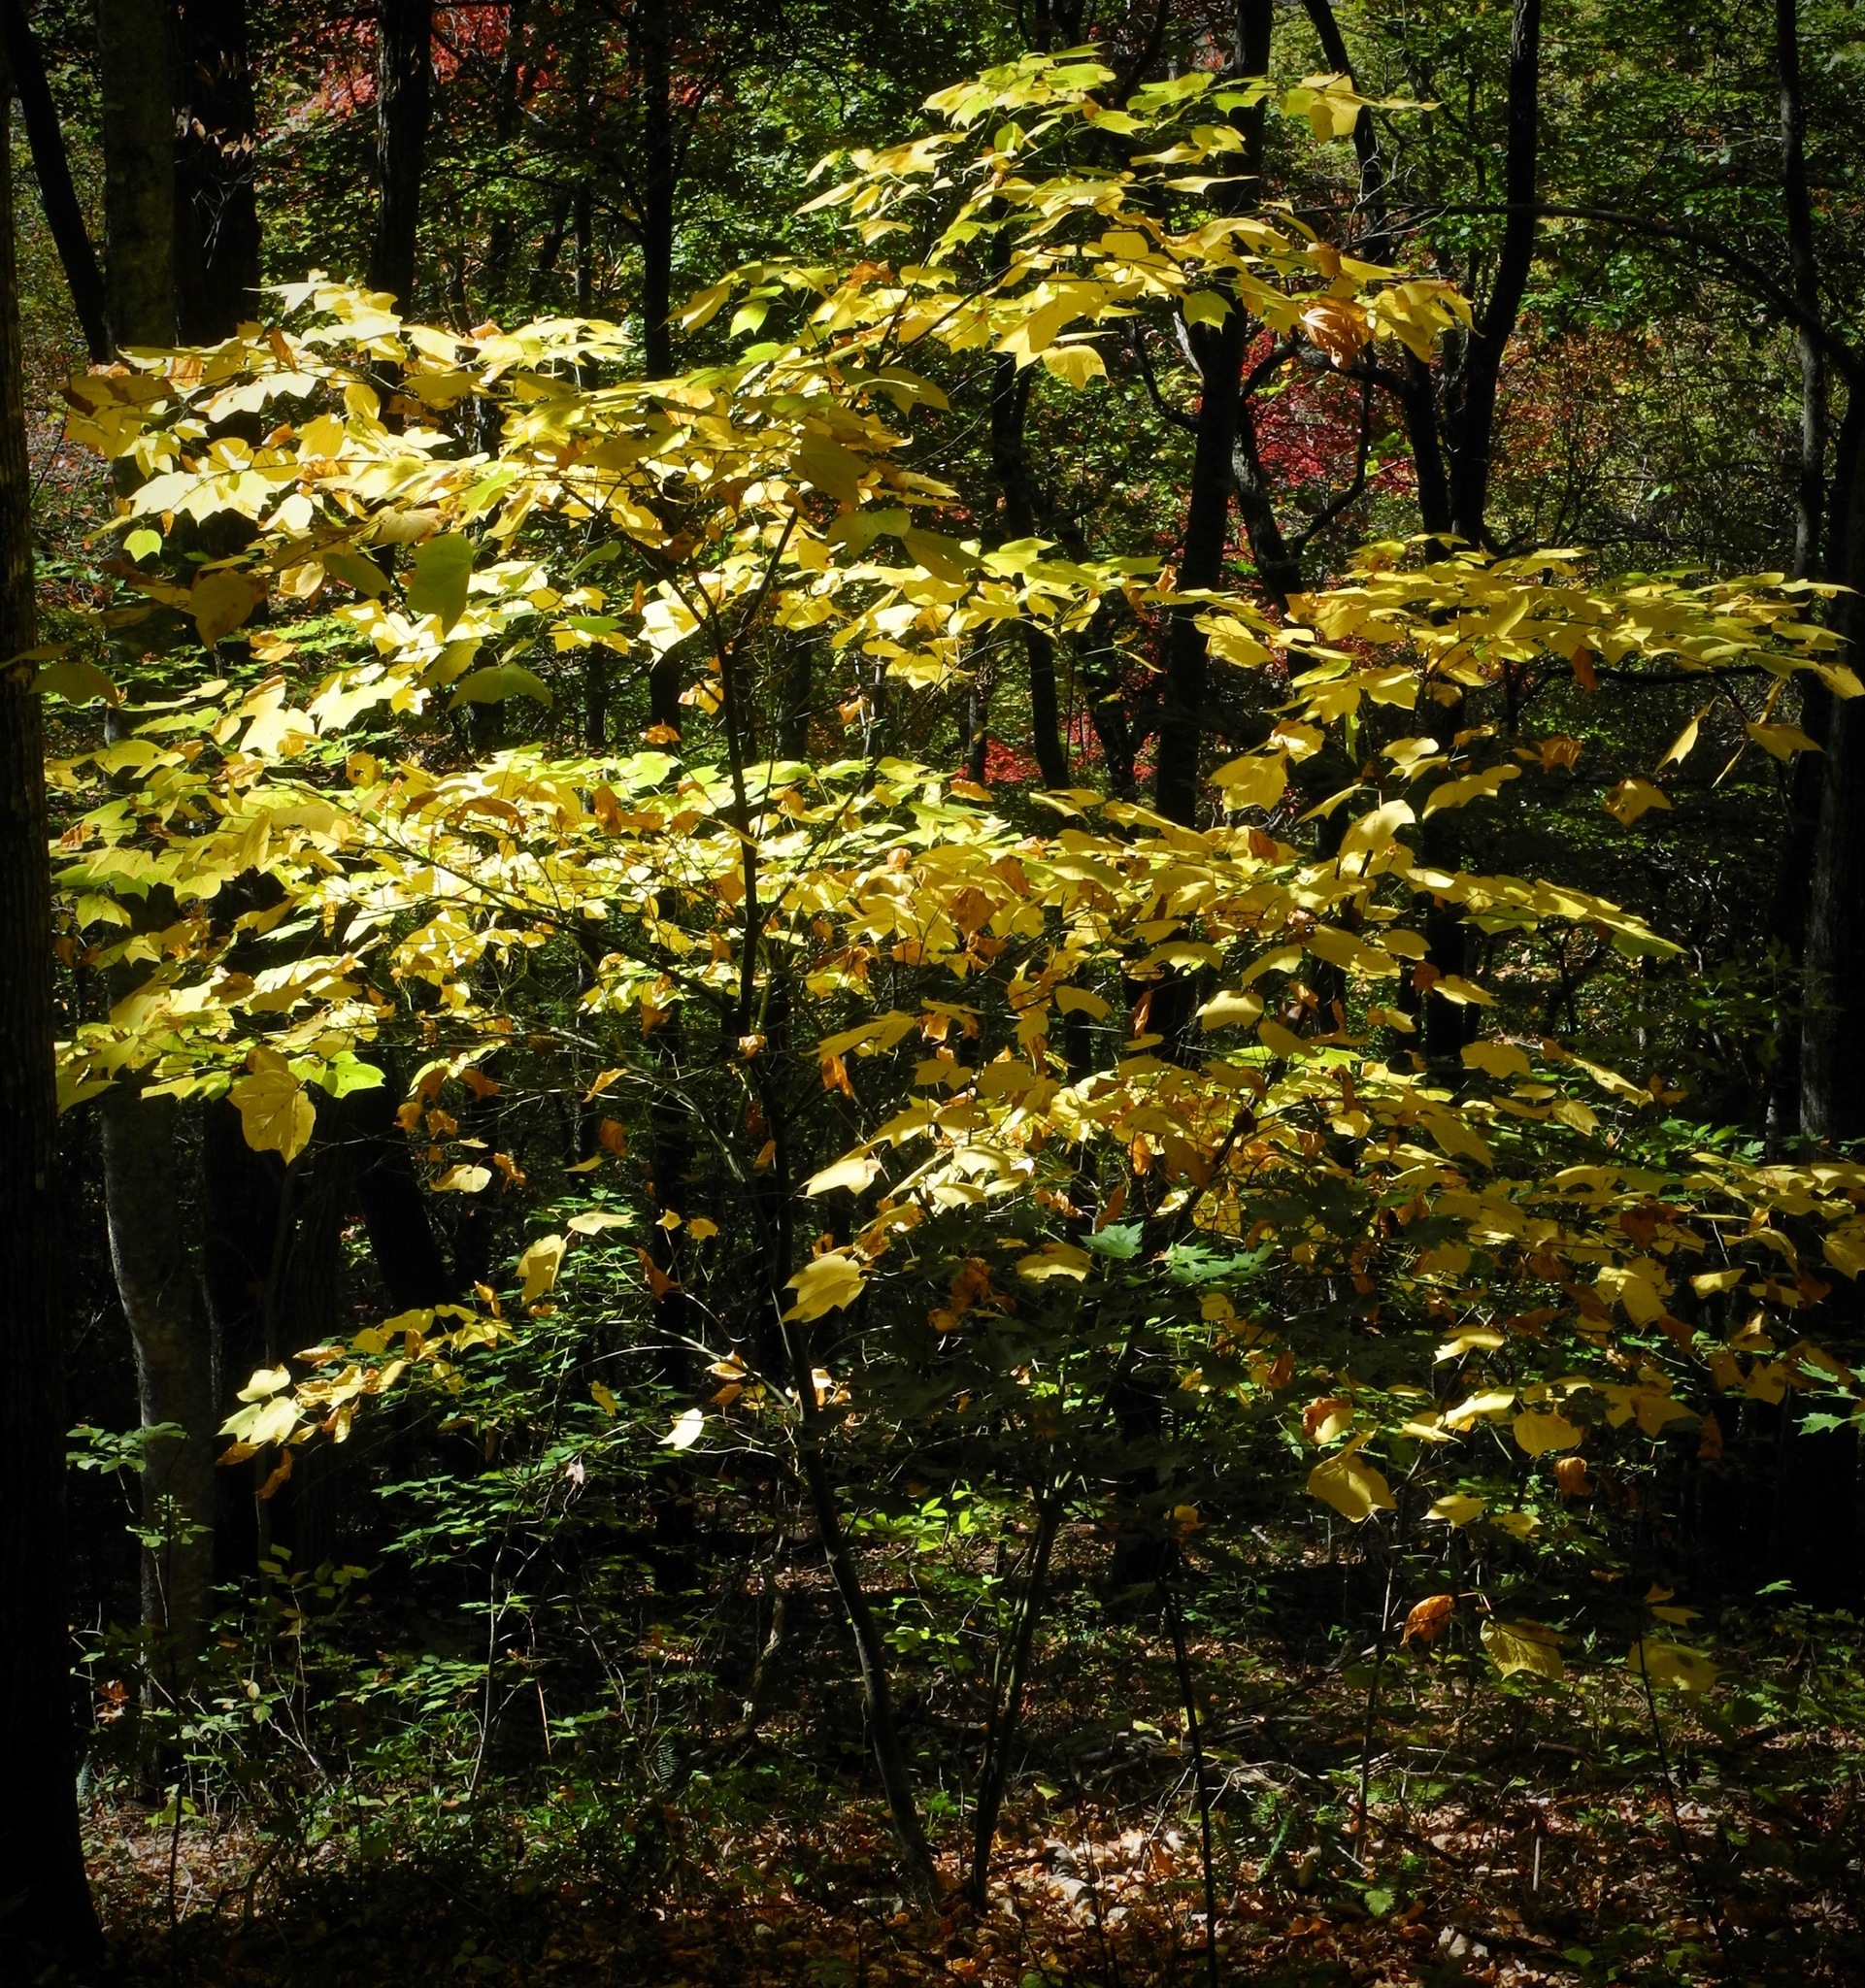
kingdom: Plantae
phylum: Tracheophyta
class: Magnoliopsida
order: Sapindales
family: Sapindaceae
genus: Acer
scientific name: Acer pensylvanicum
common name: Moosewood
